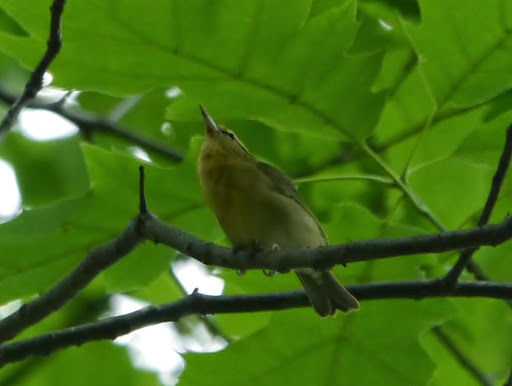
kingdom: Animalia
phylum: Chordata
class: Aves
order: Passeriformes
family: Parulidae
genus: Helmitheros
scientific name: Helmitheros vermivorum
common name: Worm-eating warbler
